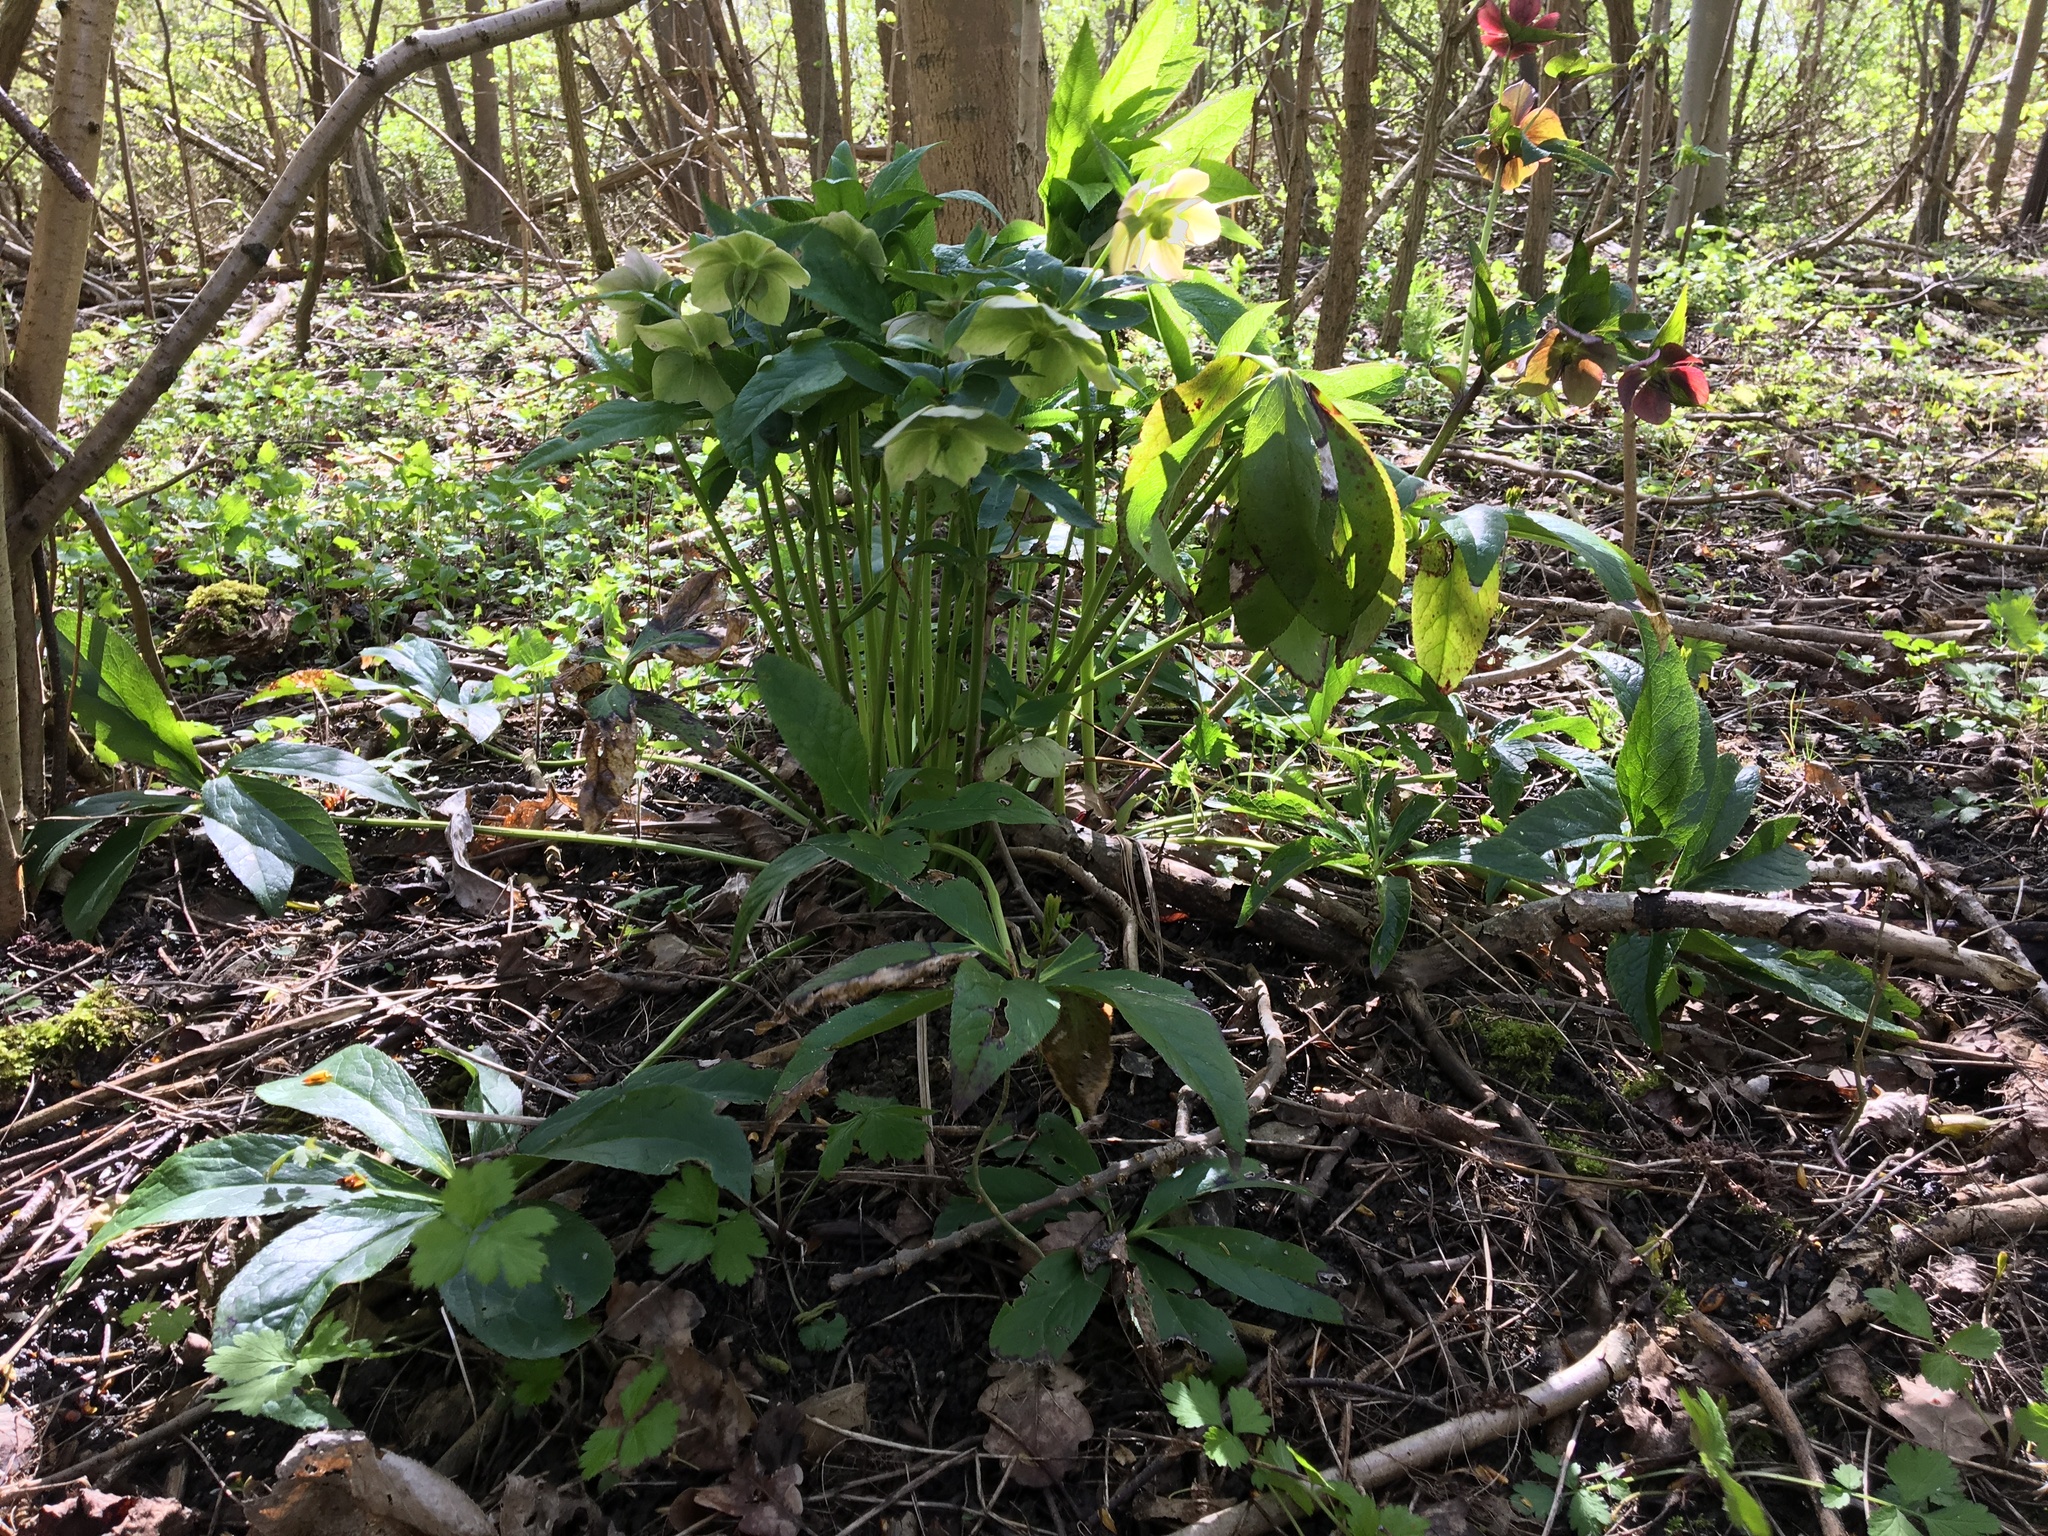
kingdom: Plantae
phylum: Tracheophyta
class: Magnoliopsida
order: Ranunculales
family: Ranunculaceae
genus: Helleborus
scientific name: Helleborus orientalis
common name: Lenten-rose
